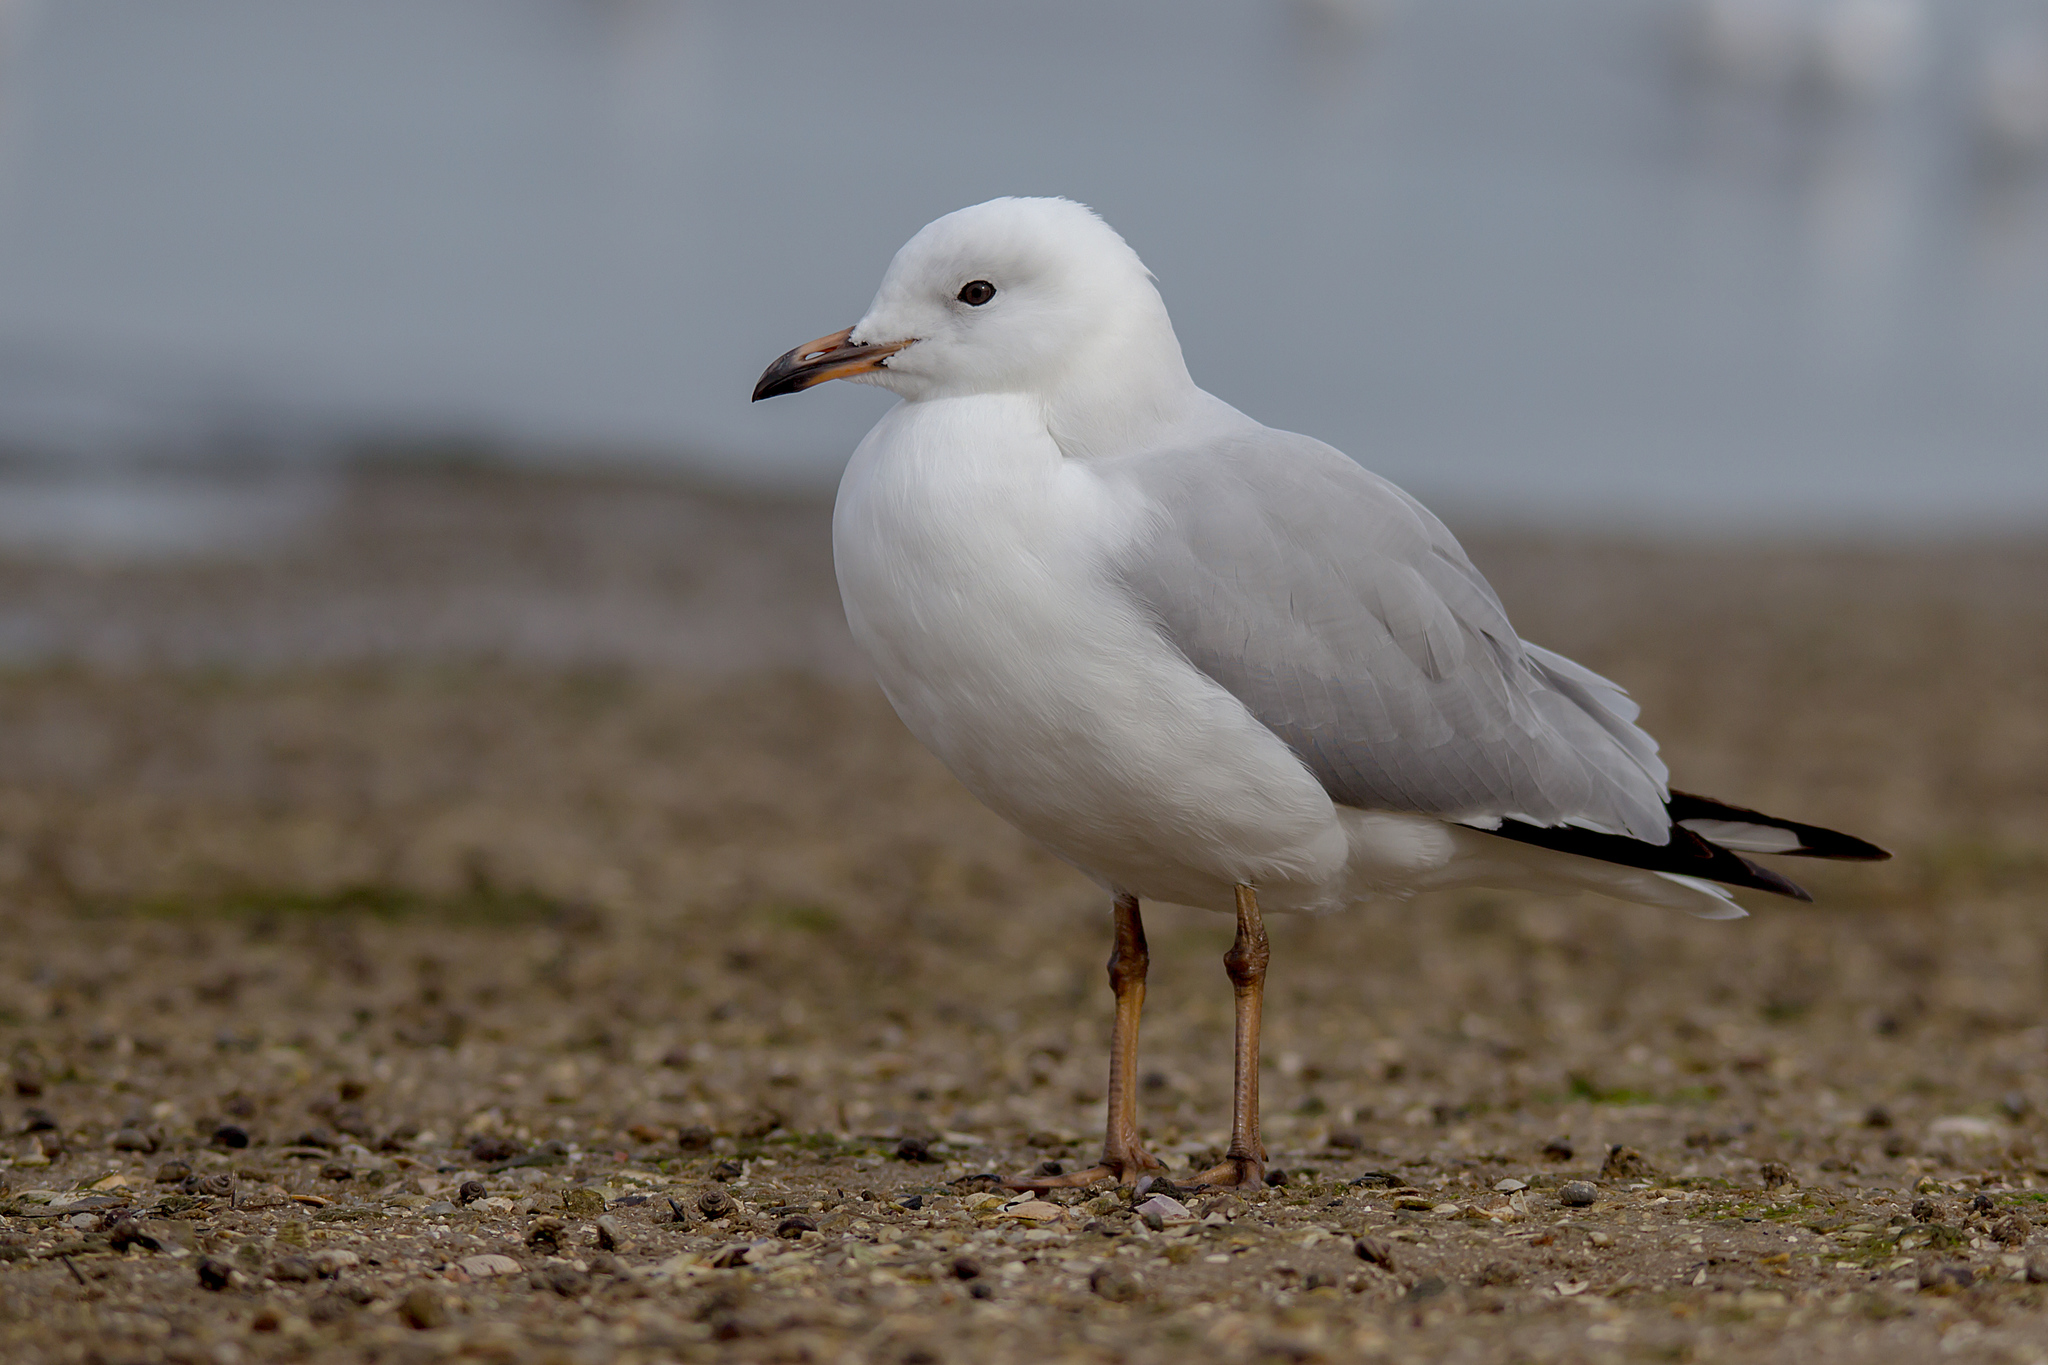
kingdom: Animalia
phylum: Chordata
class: Aves
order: Charadriiformes
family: Laridae
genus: Chroicocephalus
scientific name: Chroicocephalus novaehollandiae
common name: Silver gull
